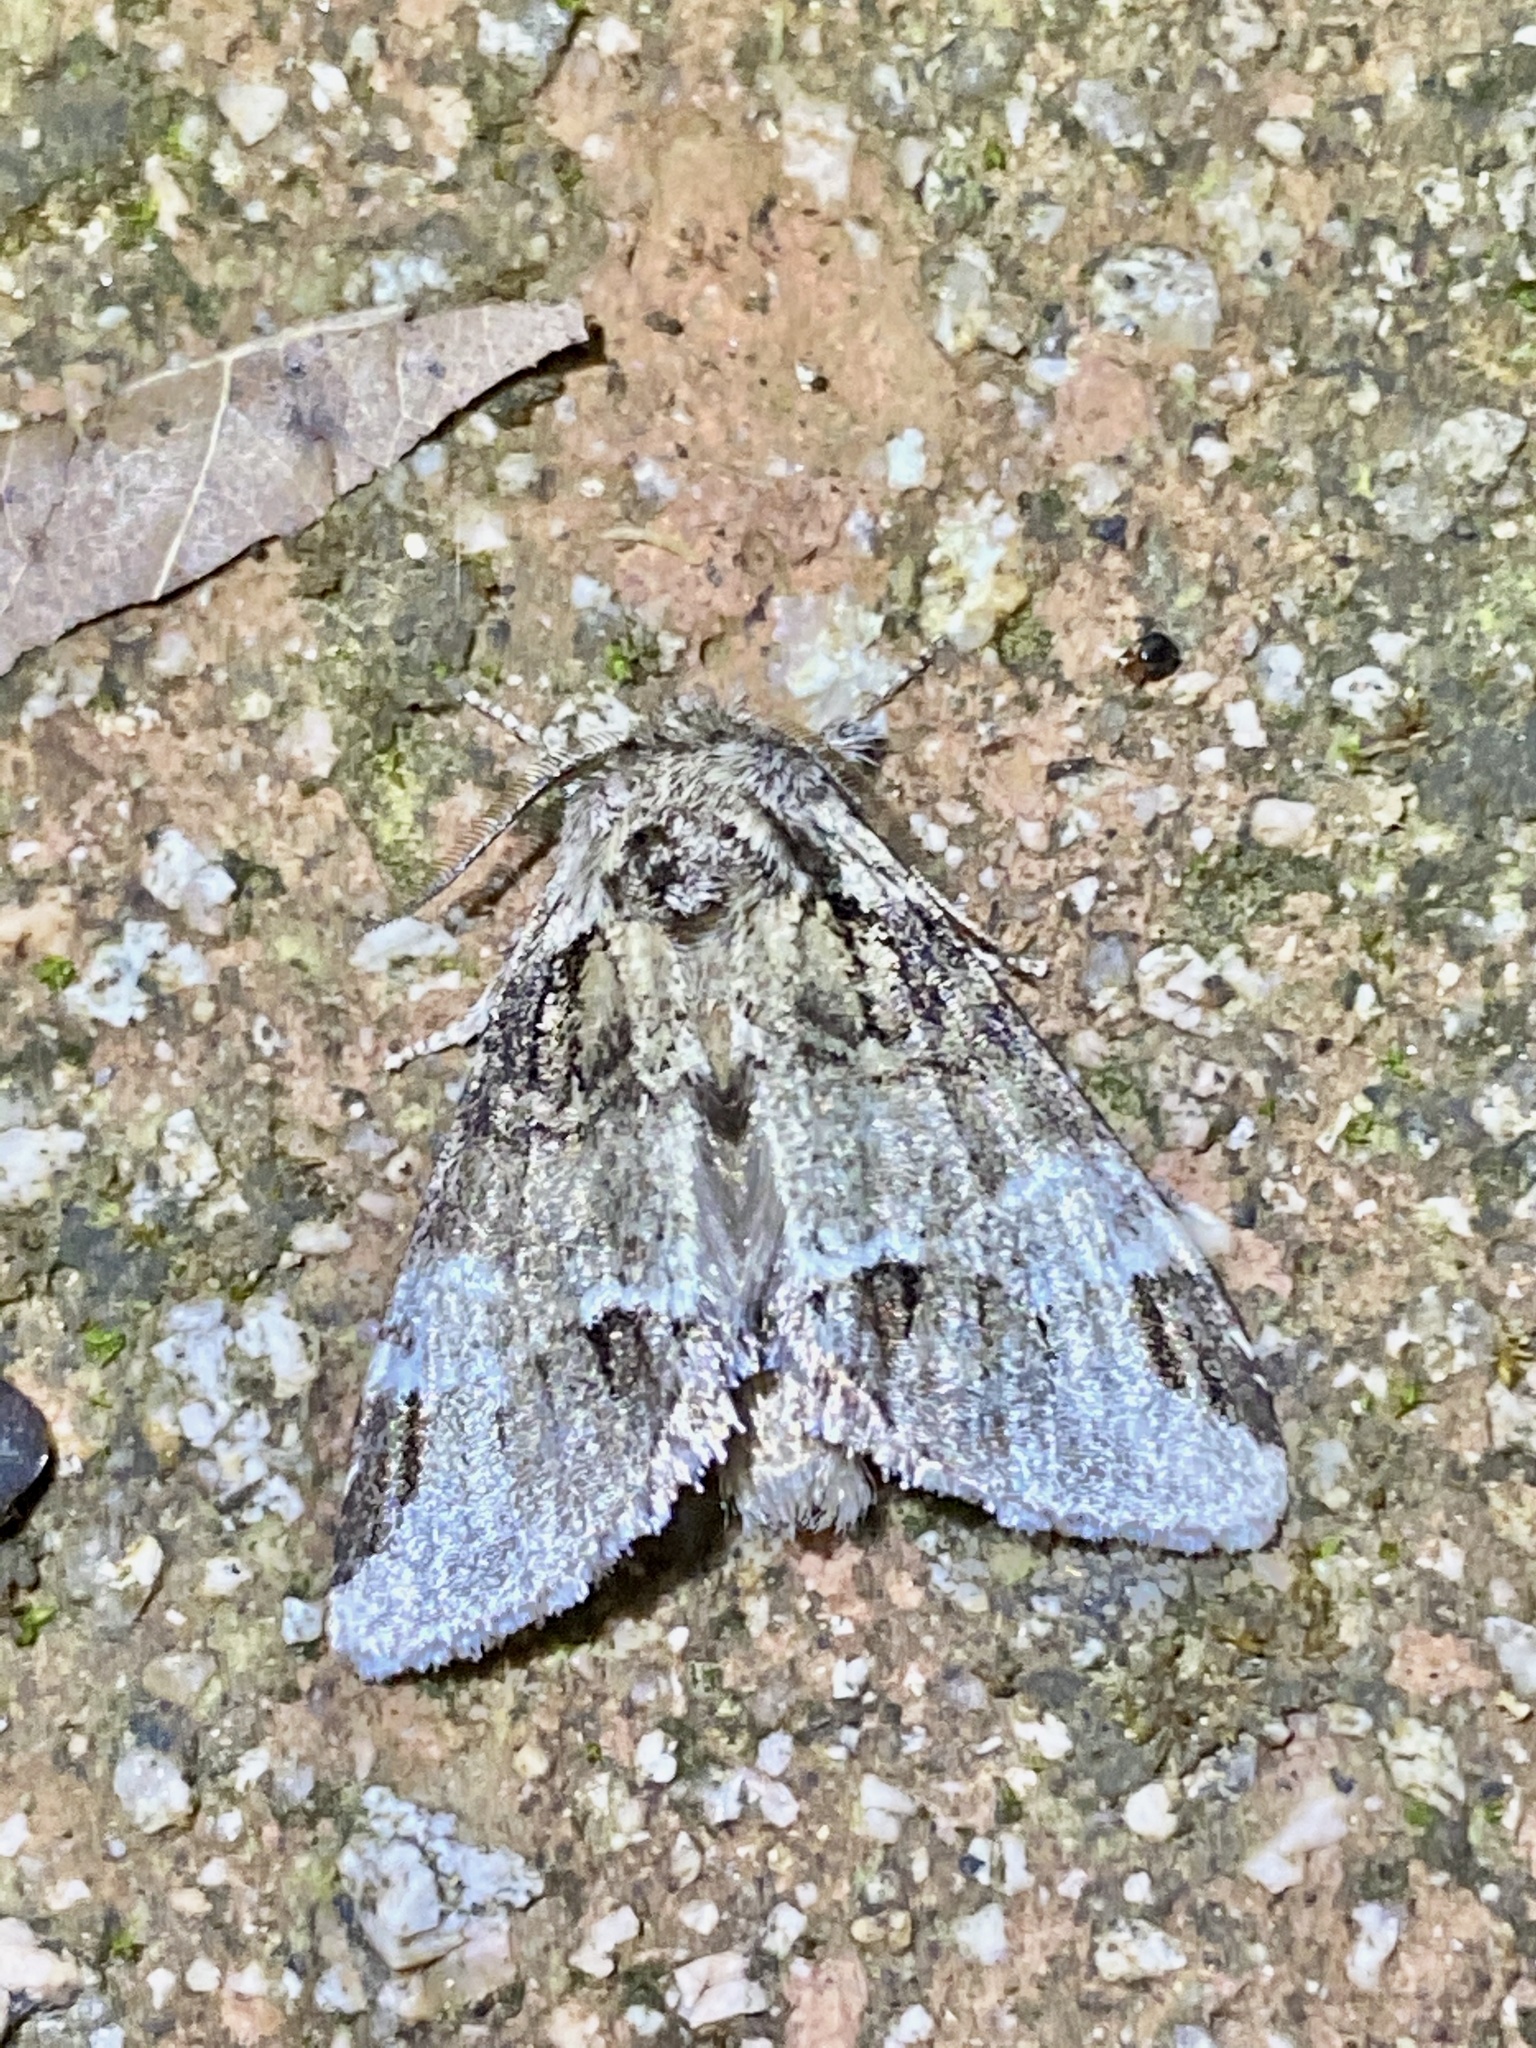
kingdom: Animalia
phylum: Arthropoda
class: Insecta
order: Lepidoptera
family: Notodontidae
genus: Drymonia
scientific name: Drymonia japonica
